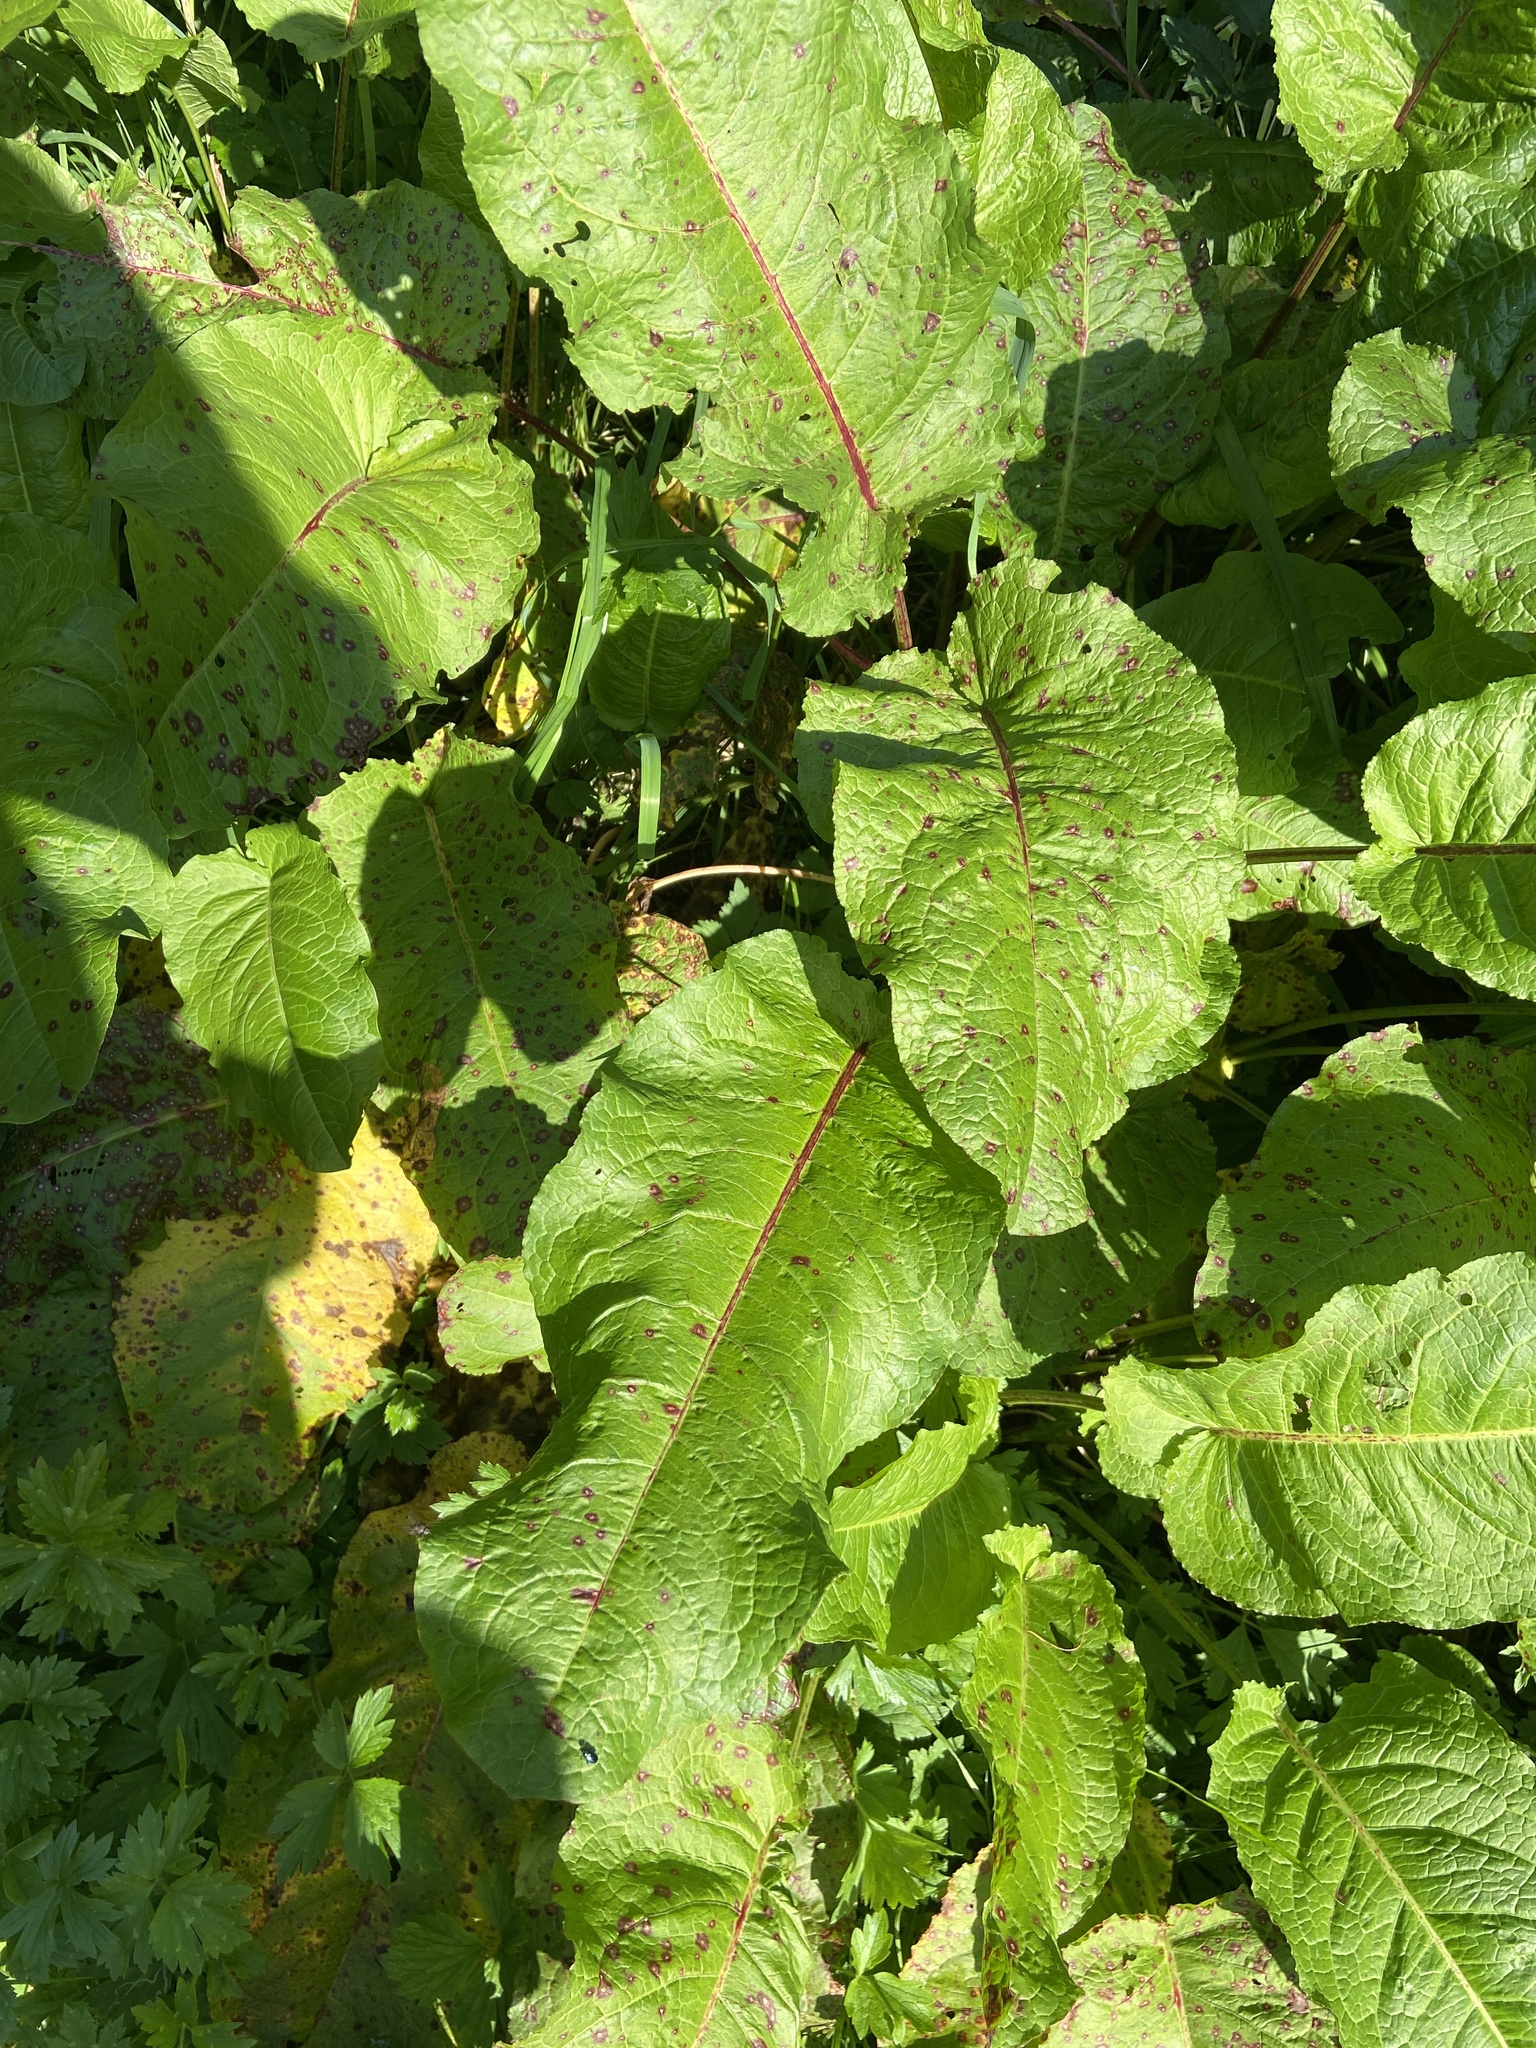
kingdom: Plantae
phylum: Tracheophyta
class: Magnoliopsida
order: Caryophyllales
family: Polygonaceae
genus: Rumex
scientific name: Rumex obtusifolius
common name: Bitter dock
